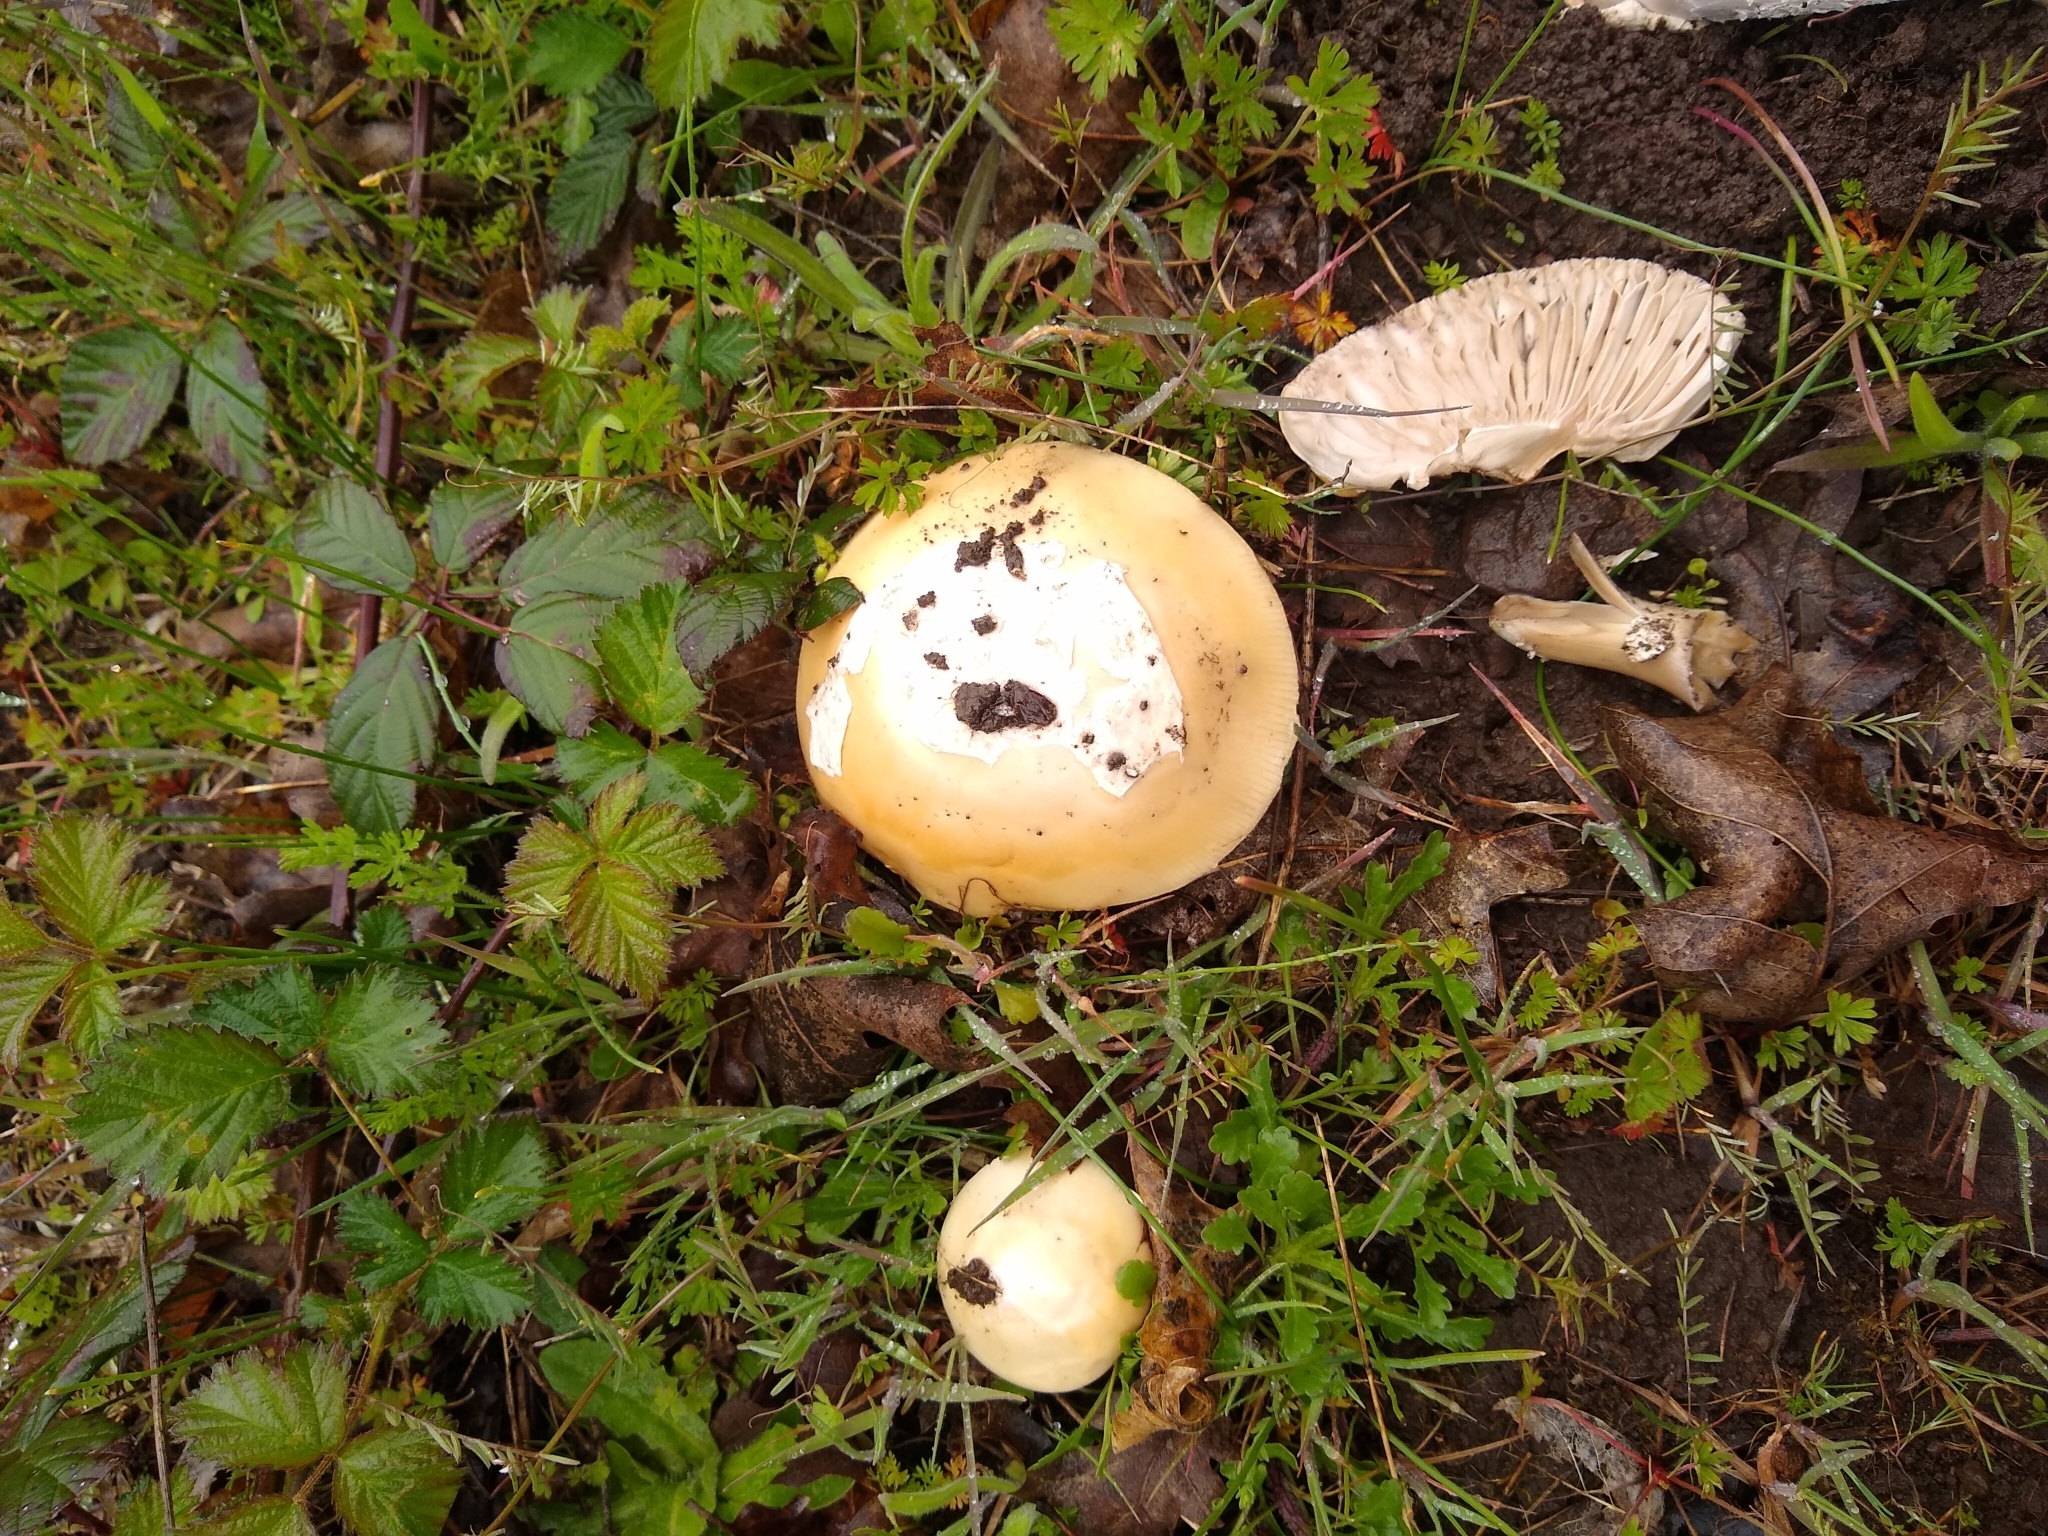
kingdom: Fungi
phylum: Basidiomycota
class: Agaricomycetes
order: Agaricales
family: Amanitaceae
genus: Amanita
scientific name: Amanita velosa
